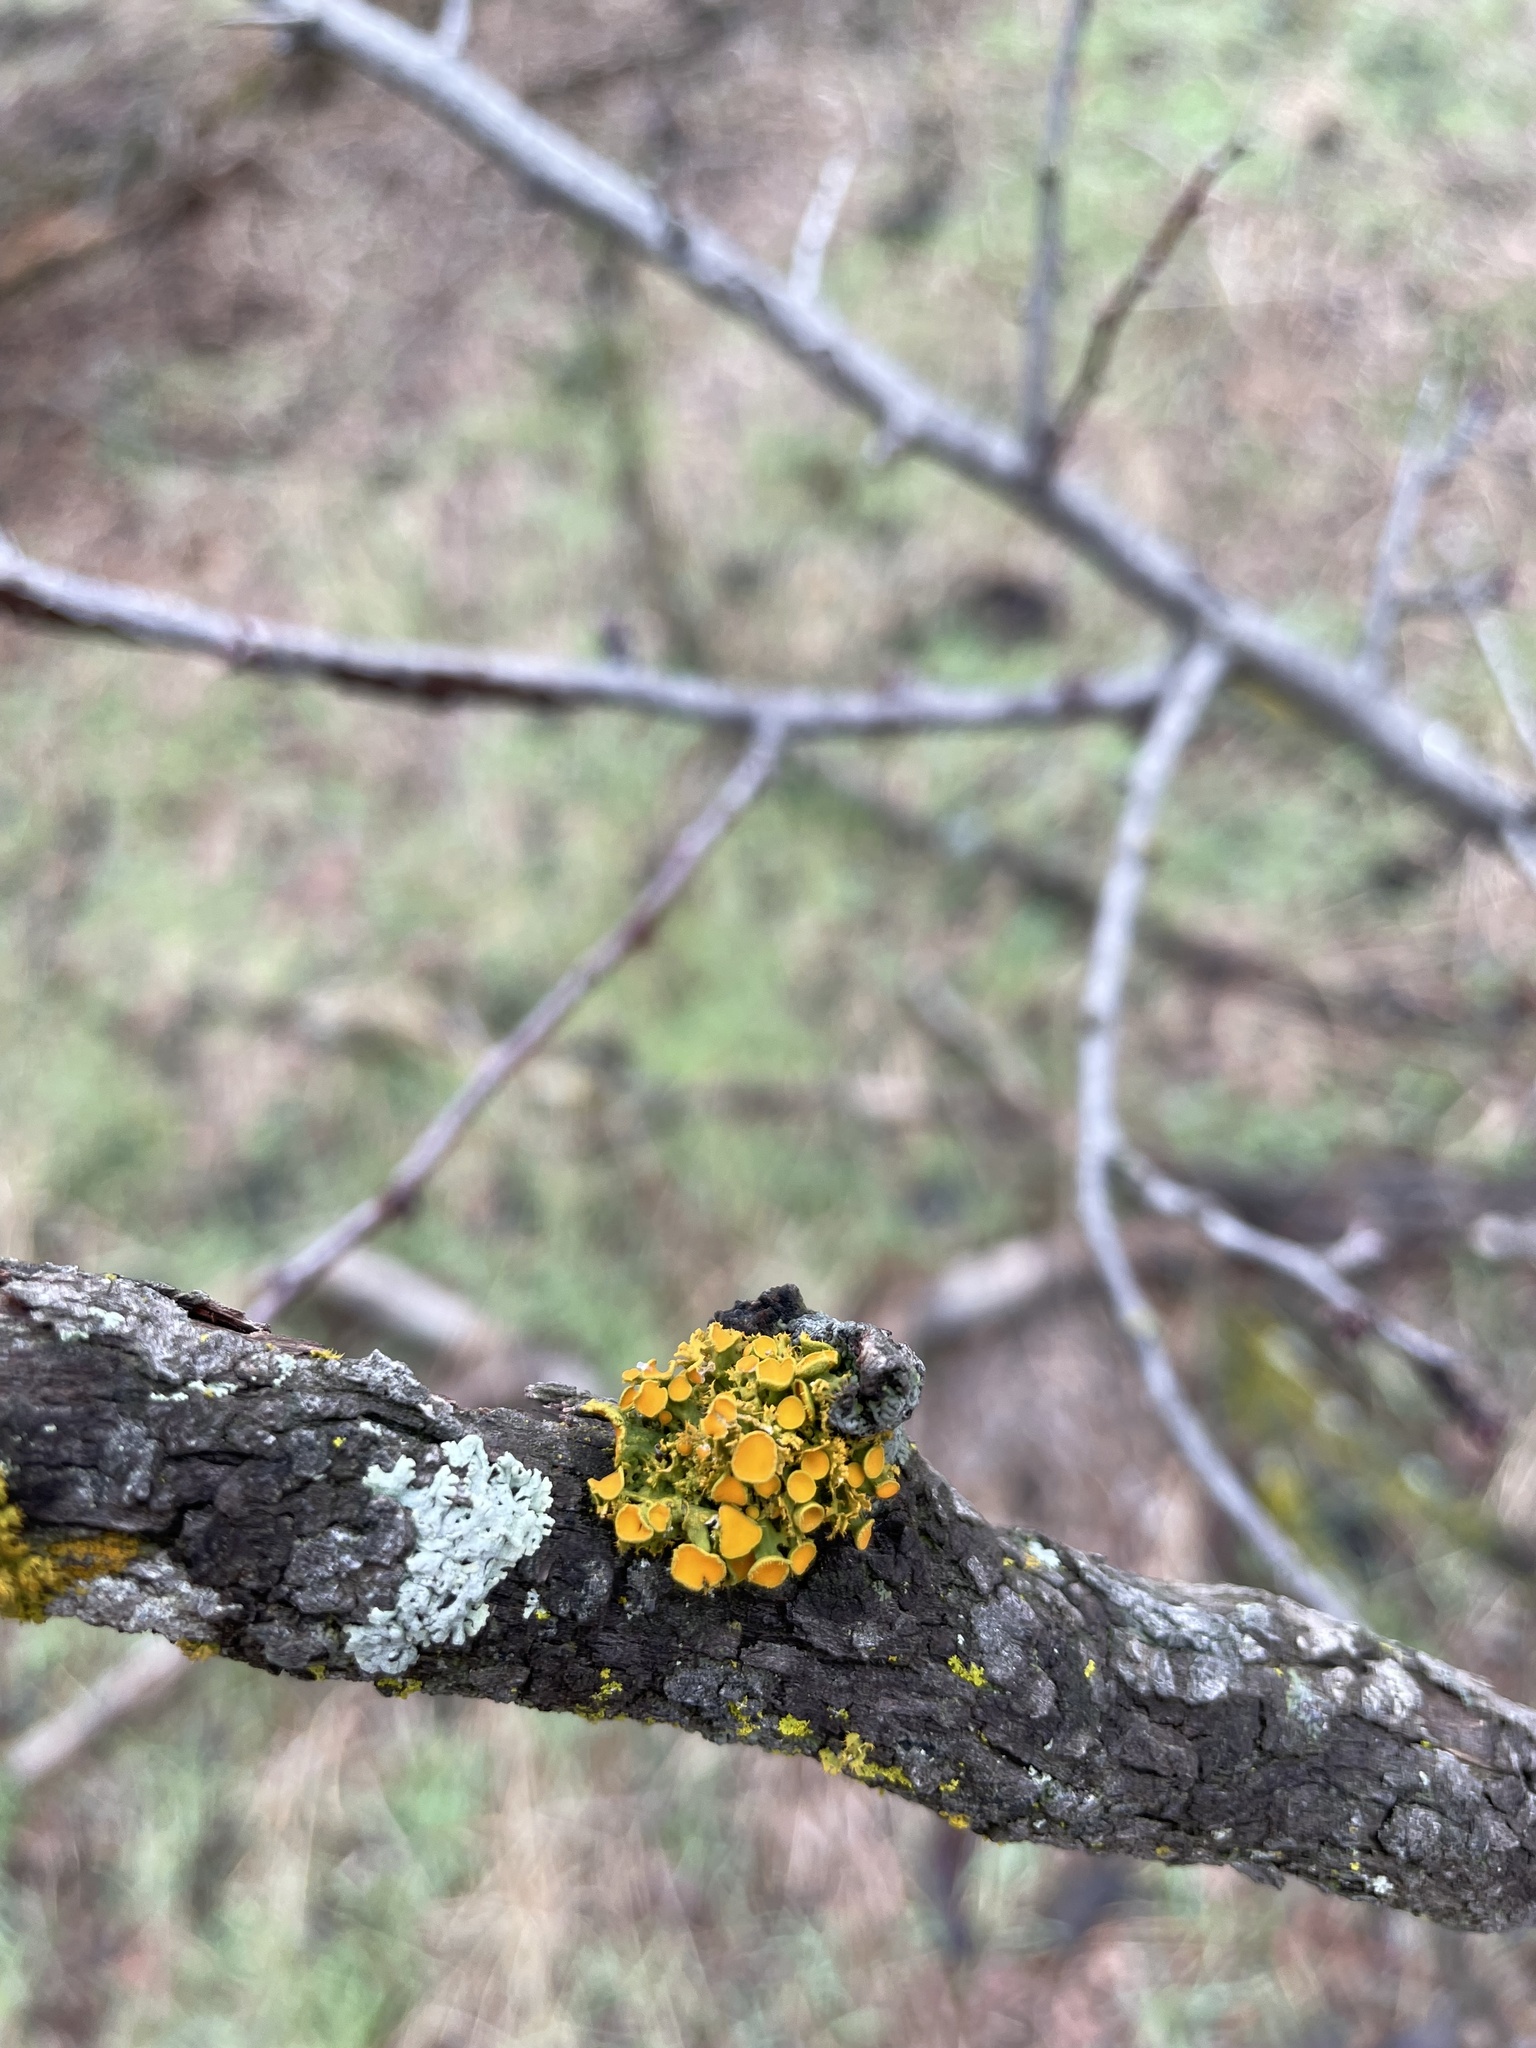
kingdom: Fungi
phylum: Ascomycota
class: Lecanoromycetes
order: Teloschistales
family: Teloschistaceae
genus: Niorma
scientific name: Niorma chrysophthalma
